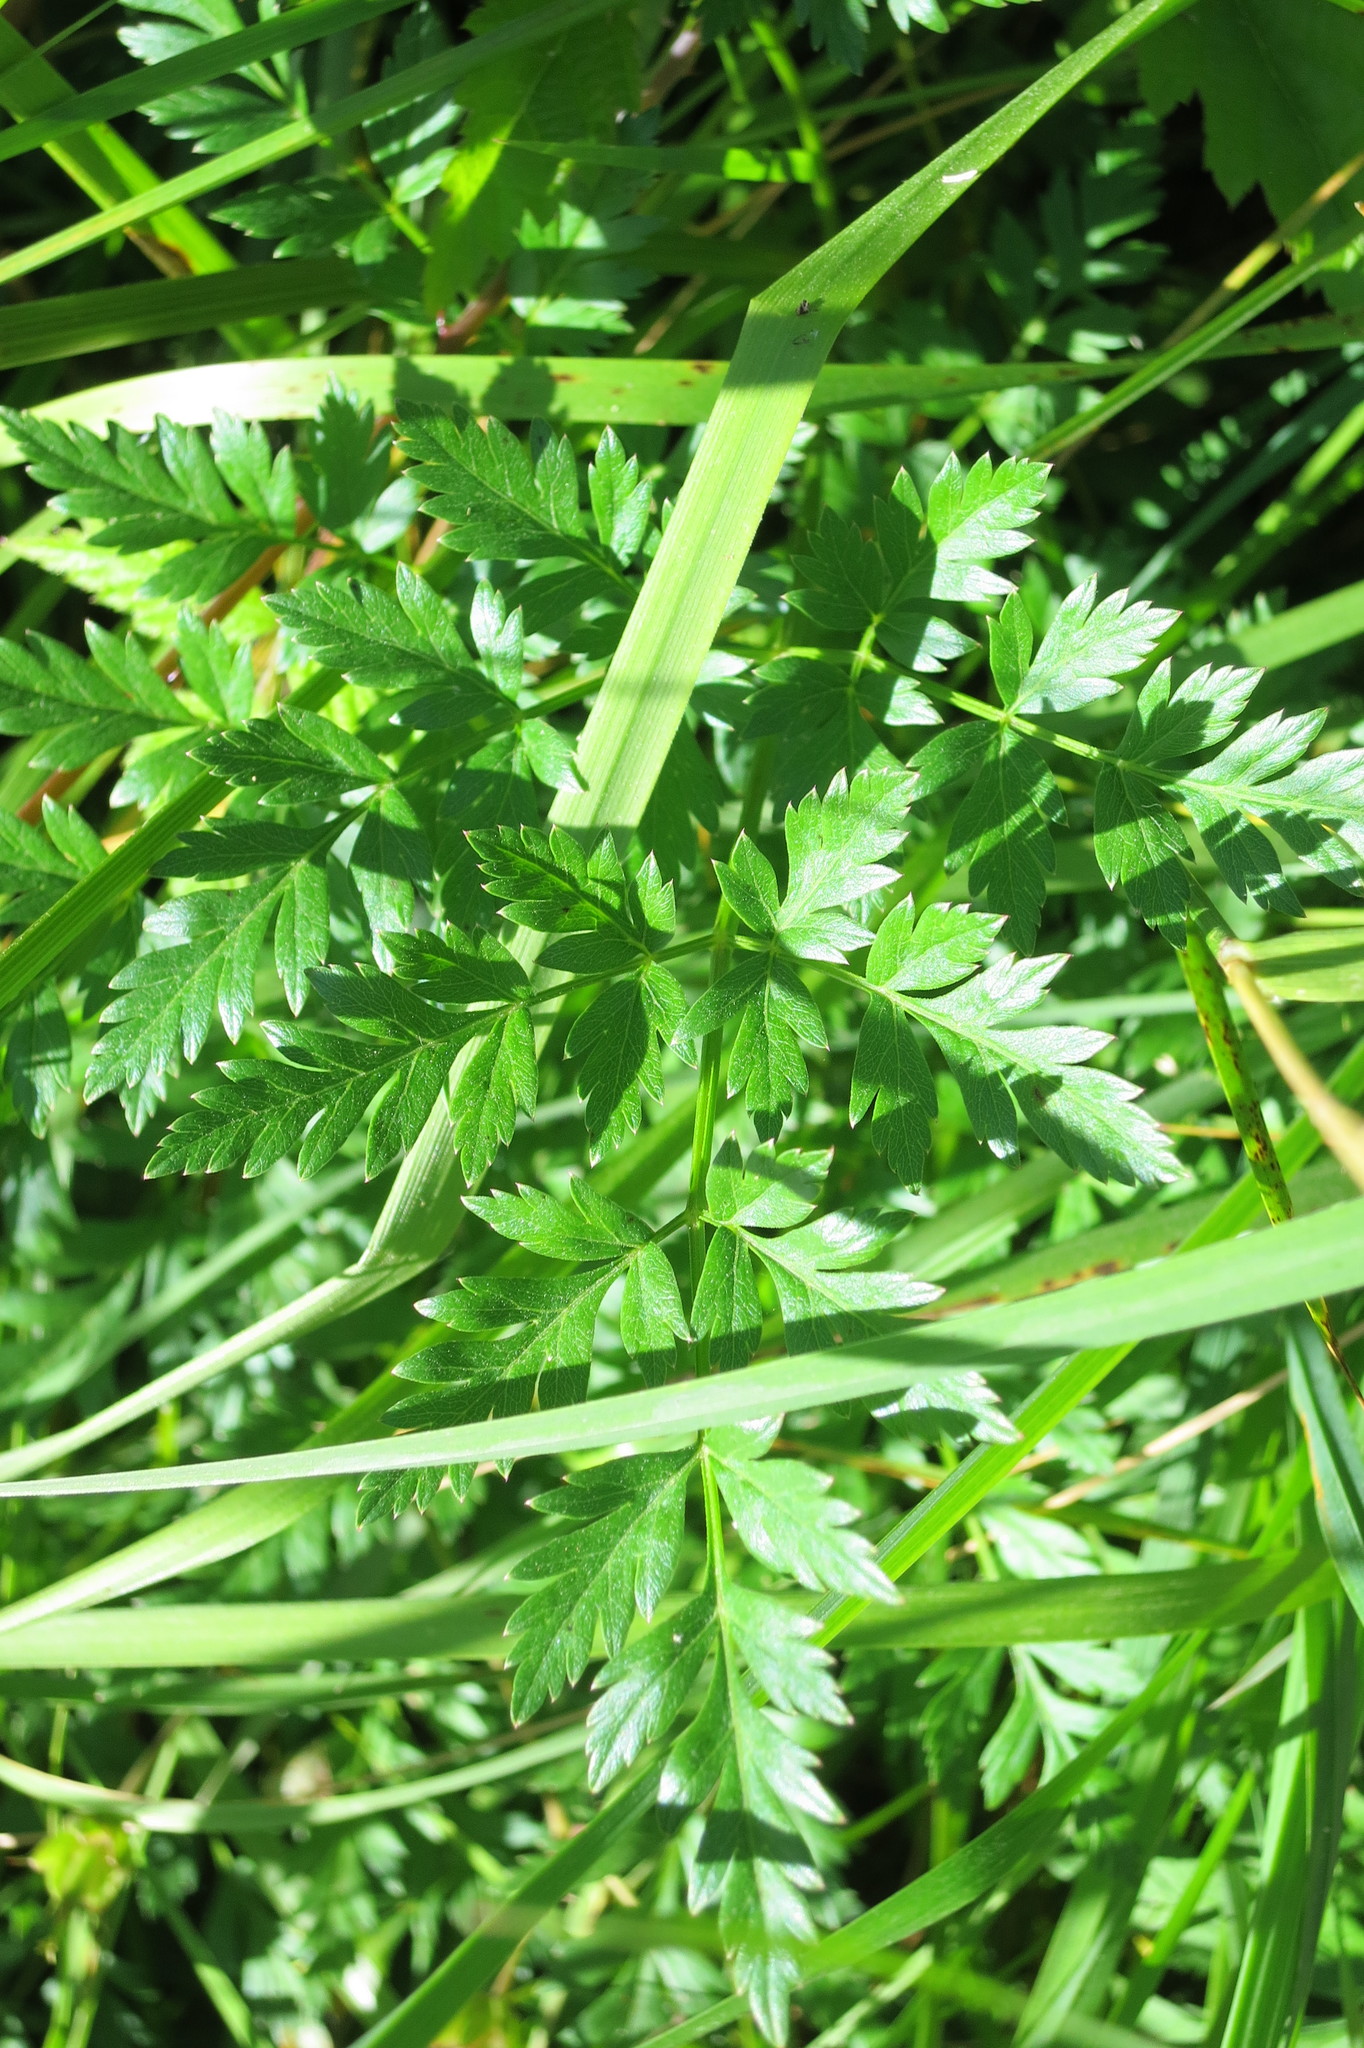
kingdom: Plantae
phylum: Tracheophyta
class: Magnoliopsida
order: Apiales
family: Apiaceae
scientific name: Apiaceae
